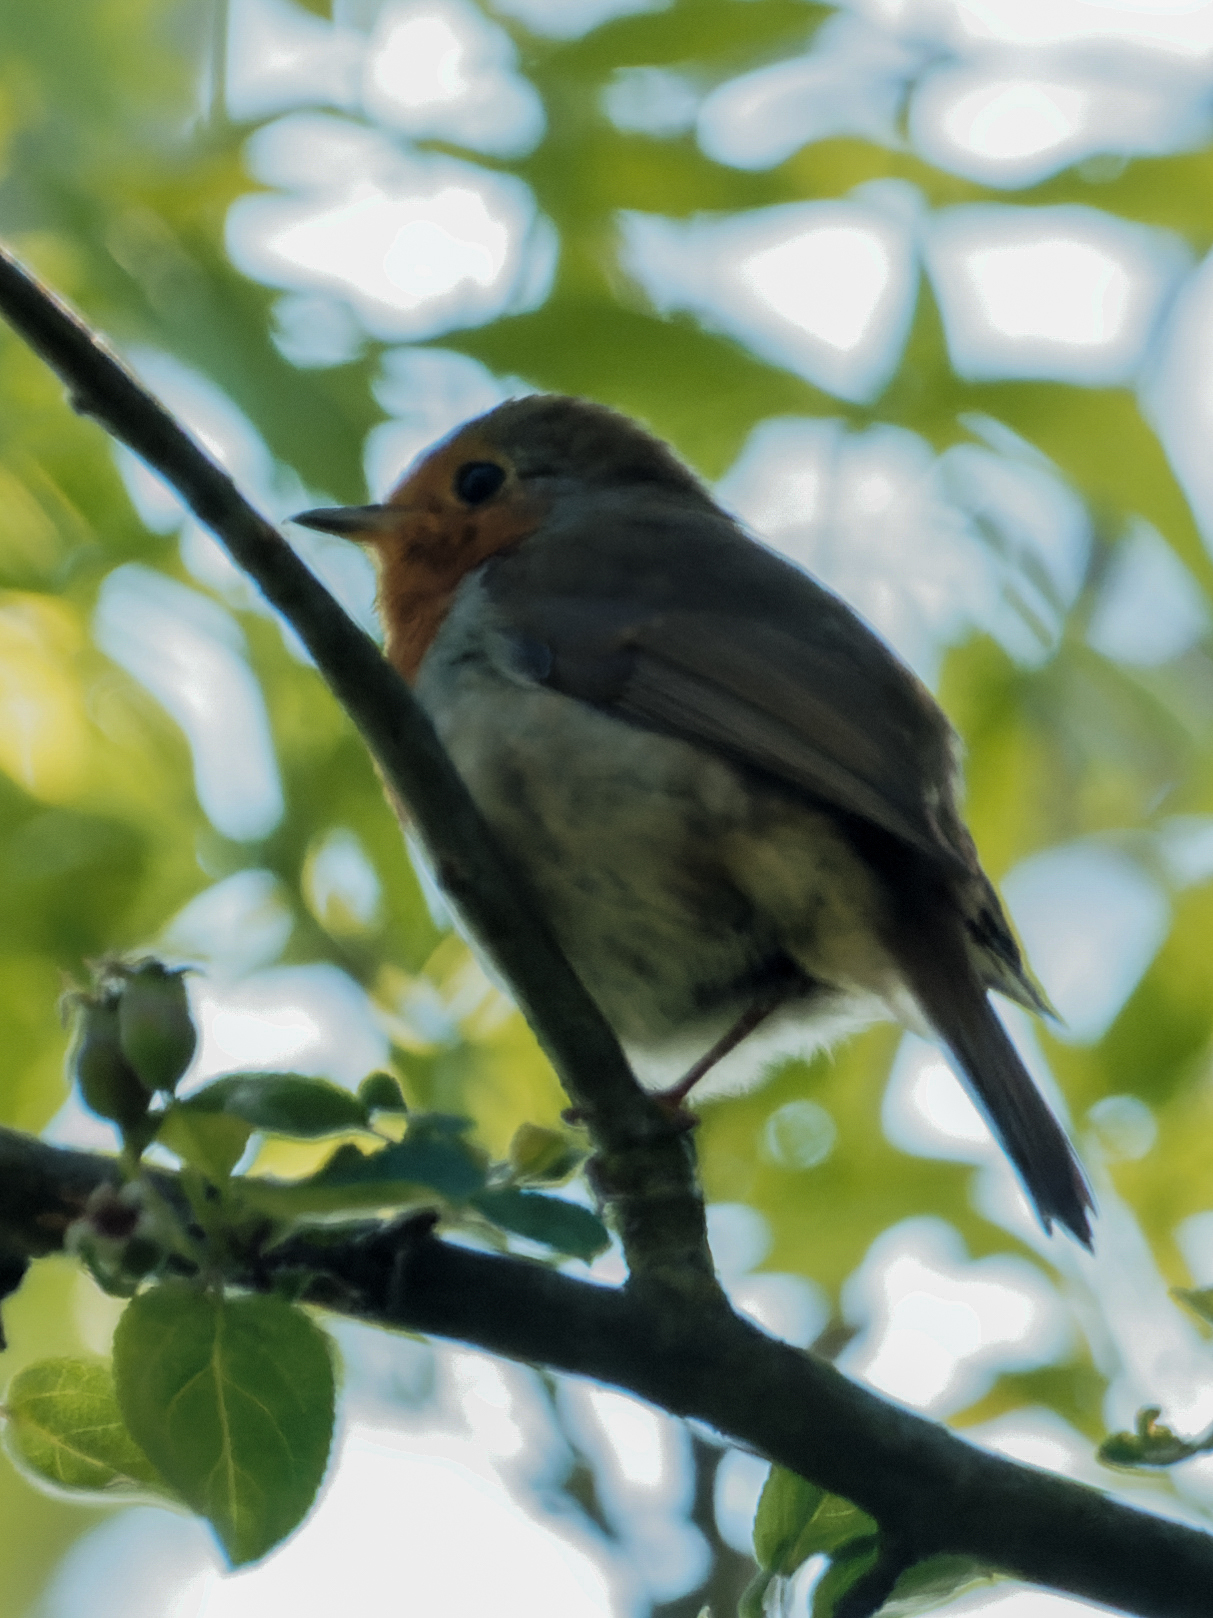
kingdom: Animalia
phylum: Chordata
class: Aves
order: Passeriformes
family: Muscicapidae
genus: Erithacus
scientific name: Erithacus rubecula
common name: European robin
